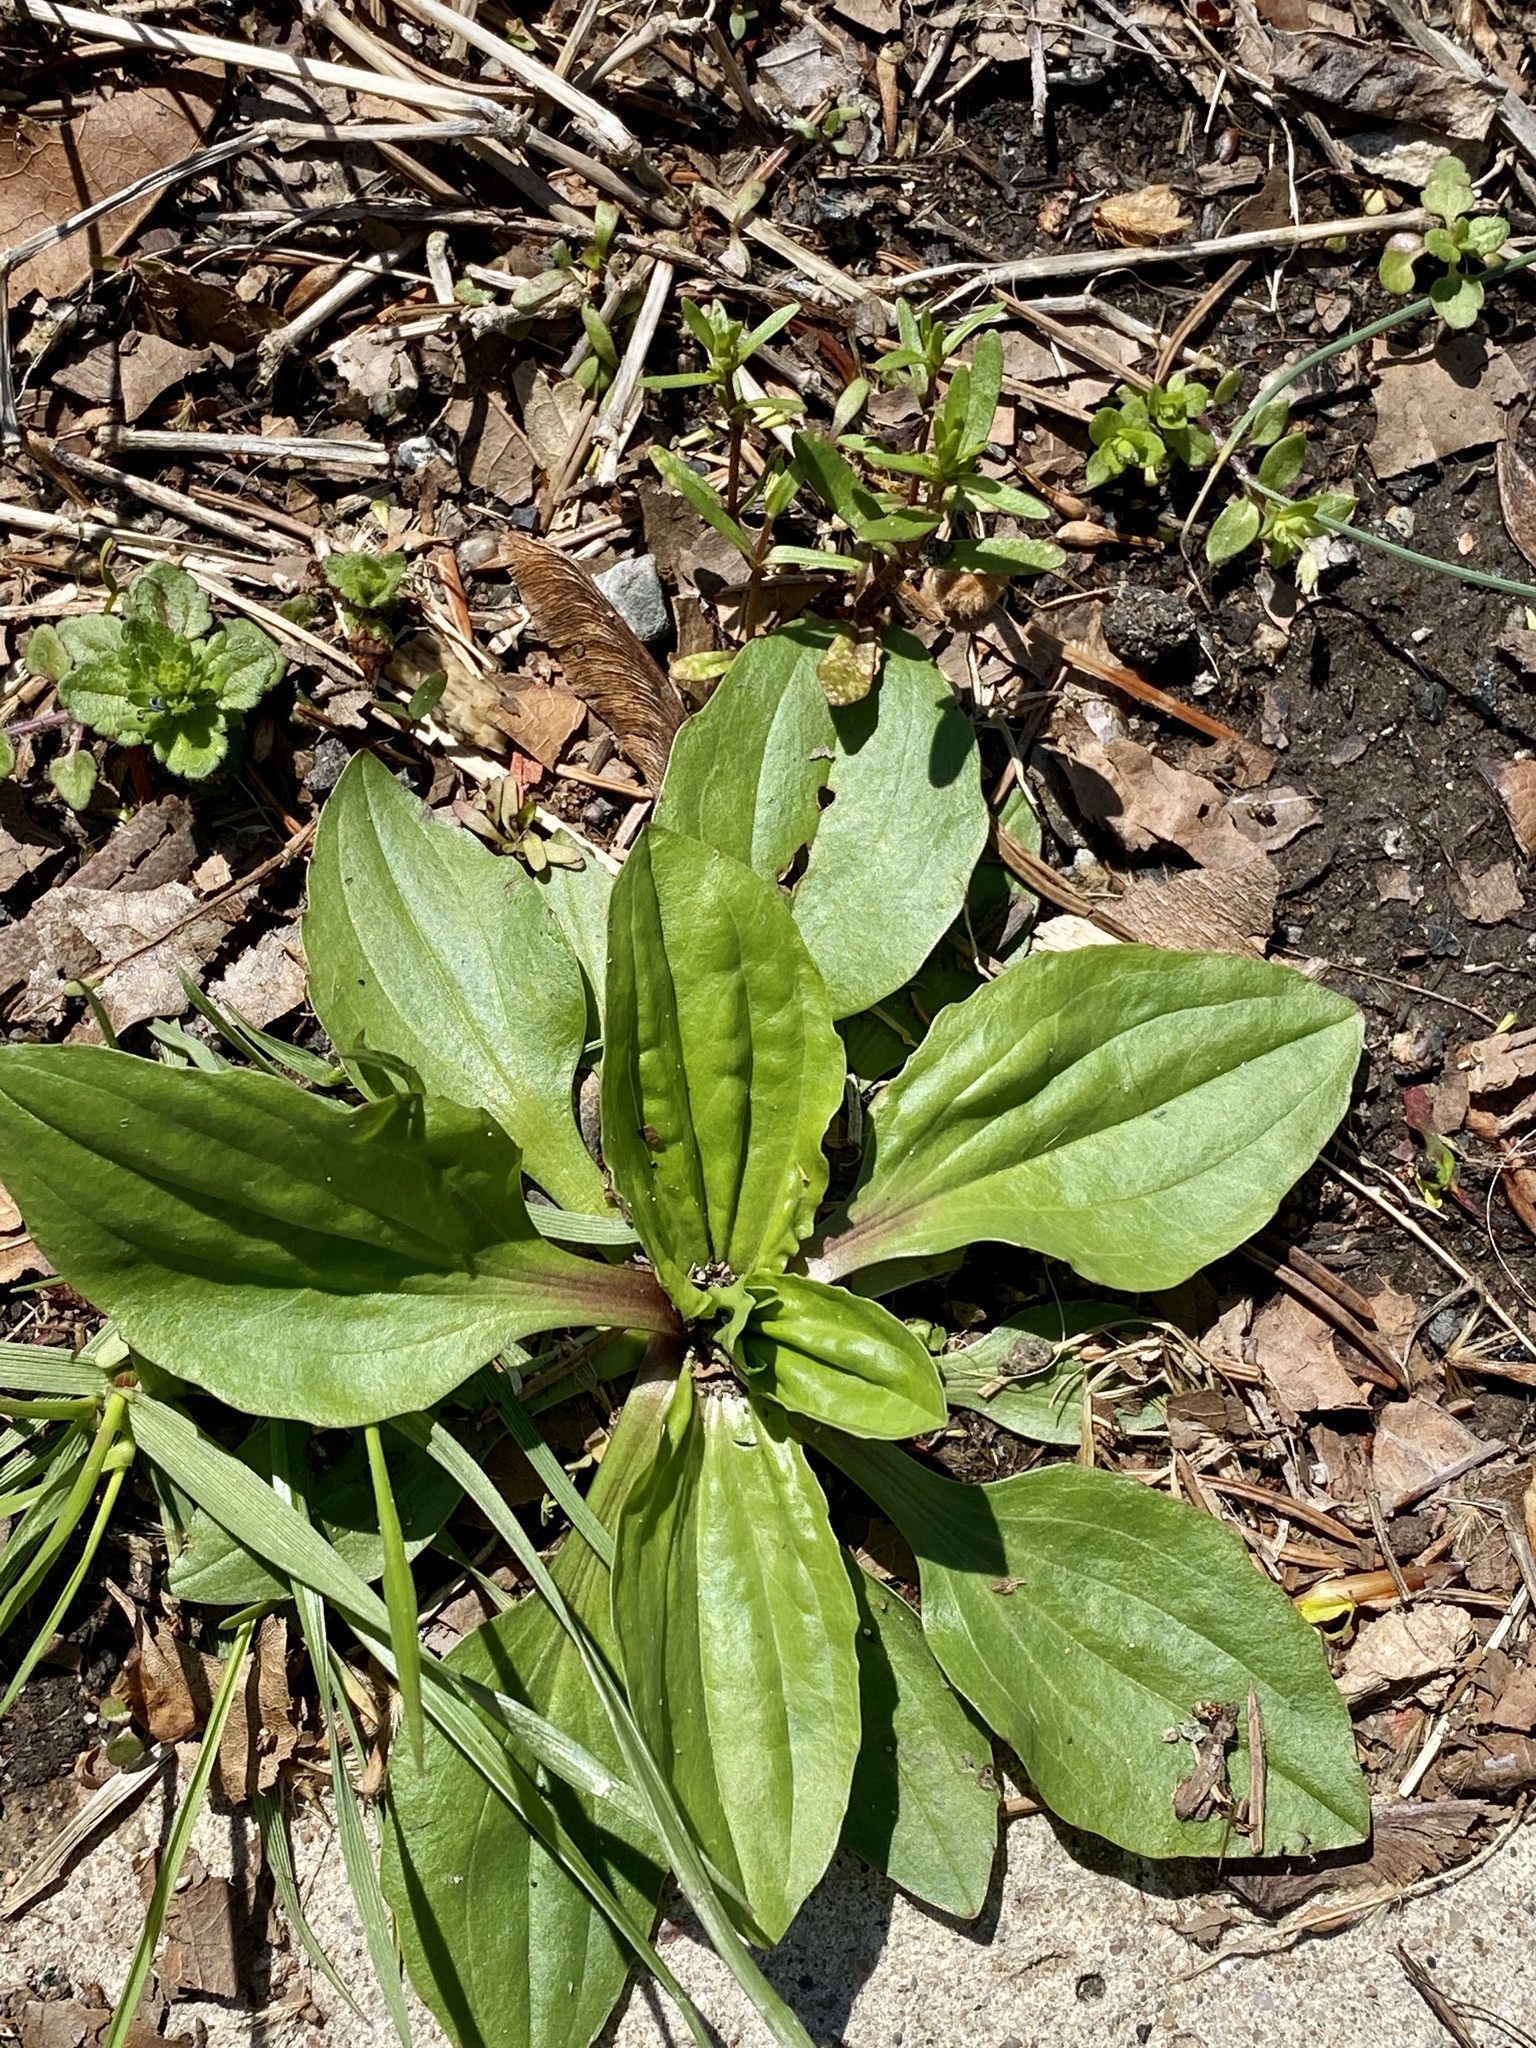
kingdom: Plantae
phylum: Tracheophyta
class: Magnoliopsida
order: Lamiales
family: Plantaginaceae
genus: Plantago
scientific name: Plantago rugelii
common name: American plantain
